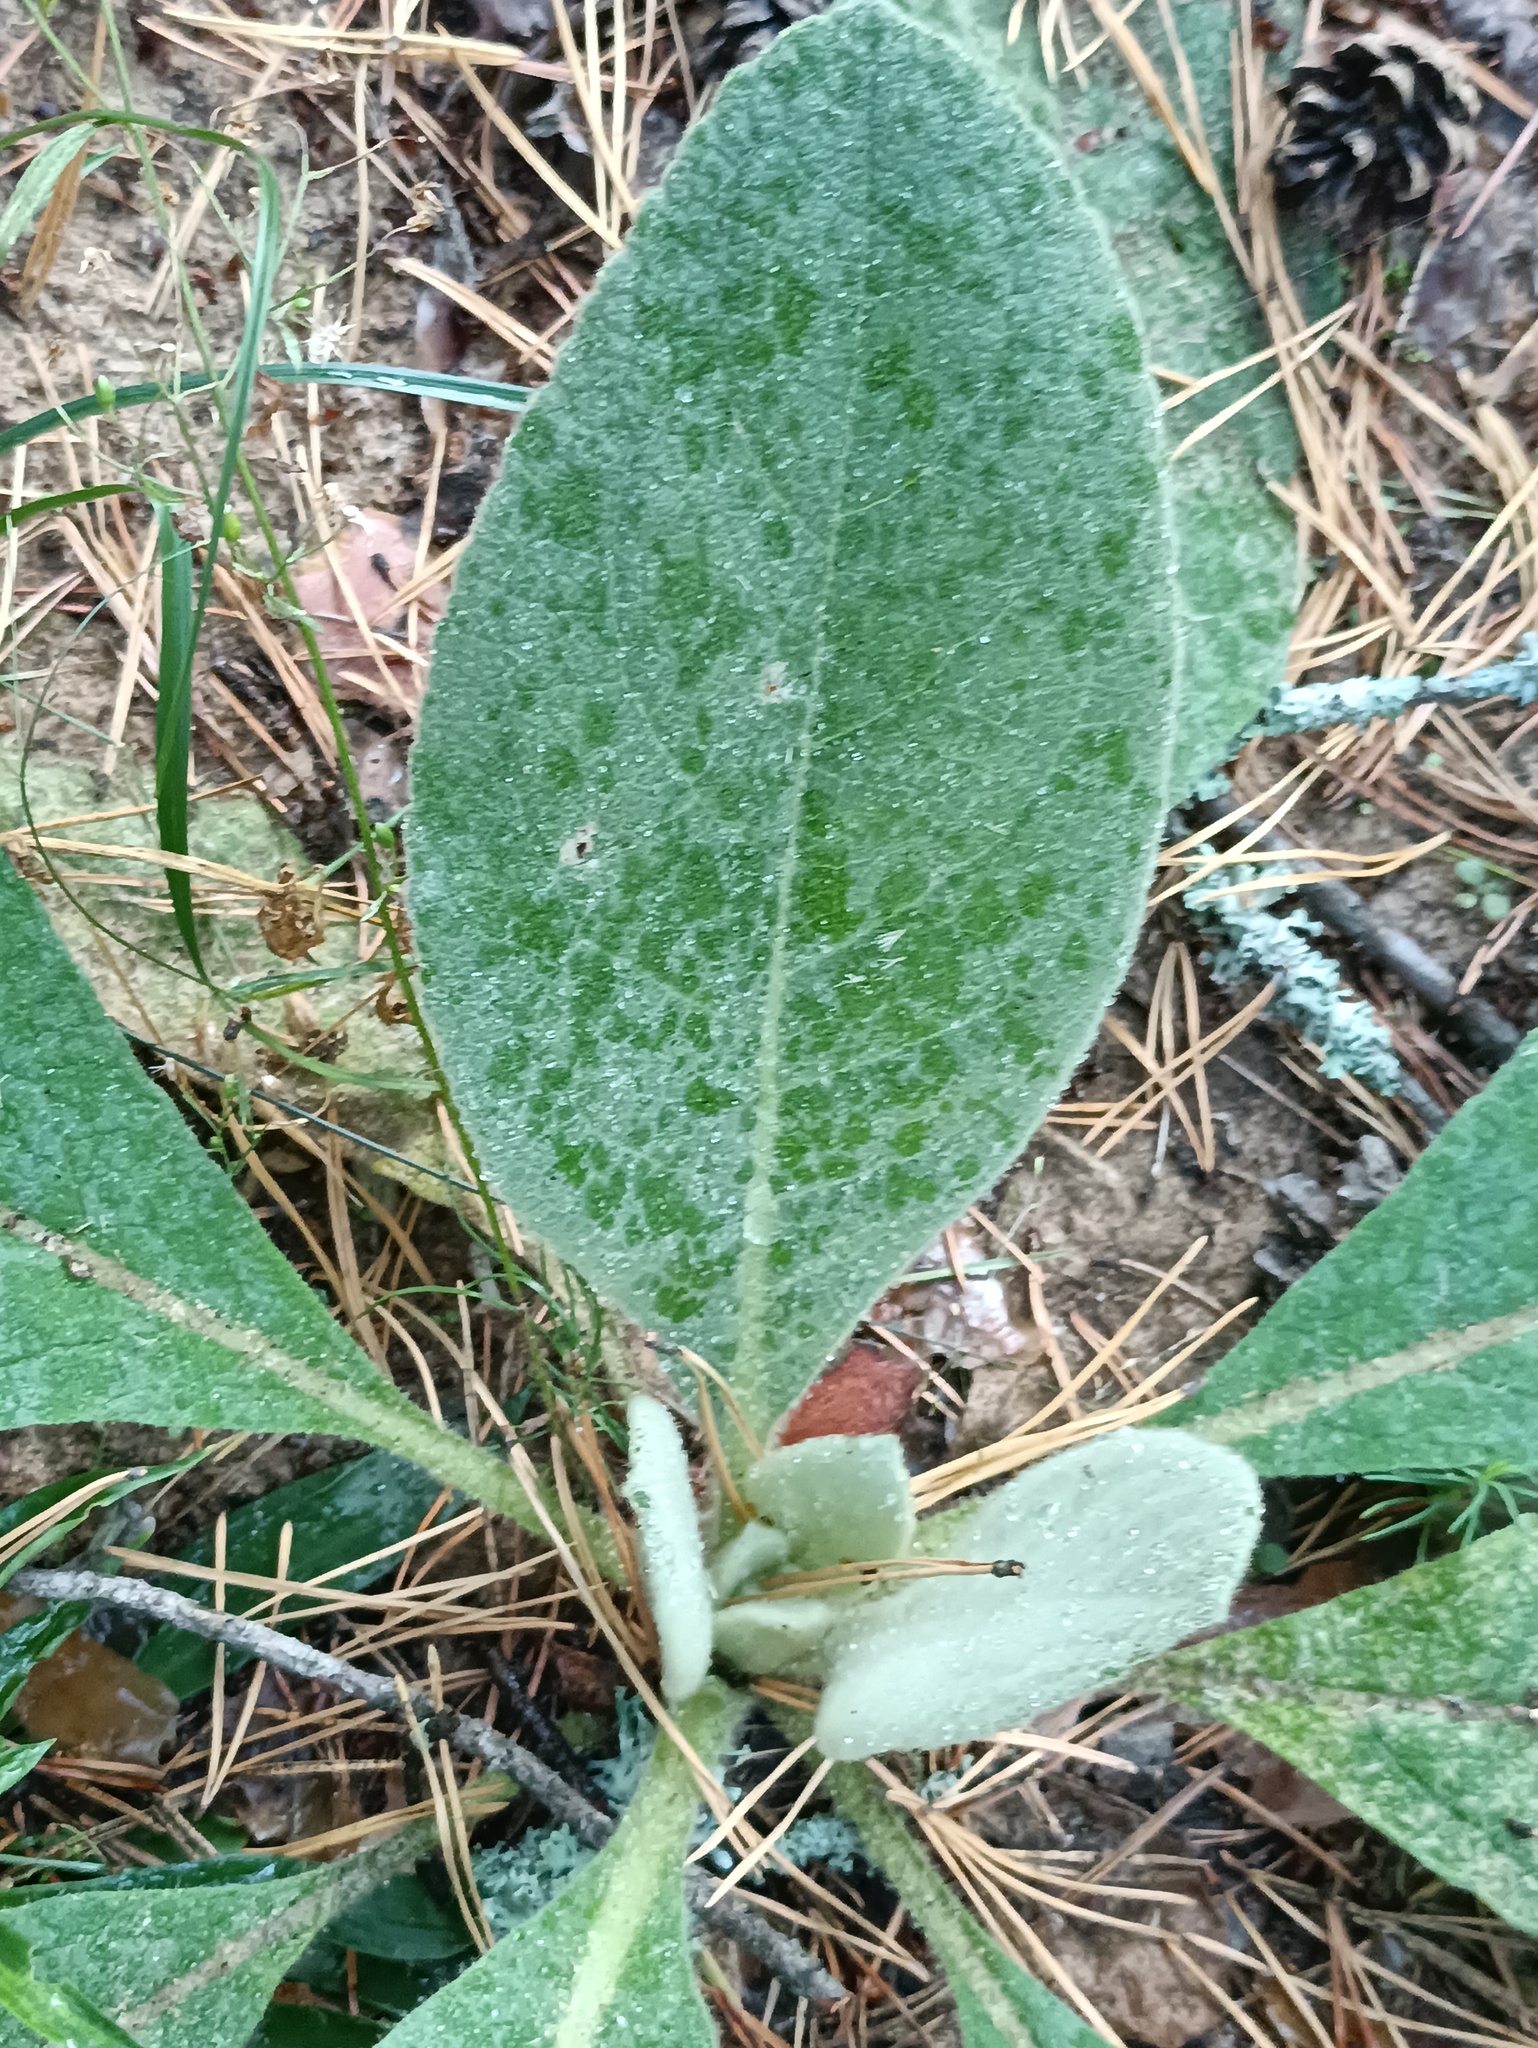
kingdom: Plantae
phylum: Tracheophyta
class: Magnoliopsida
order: Lamiales
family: Scrophulariaceae
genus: Verbascum
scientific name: Verbascum thapsus
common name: Common mullein
